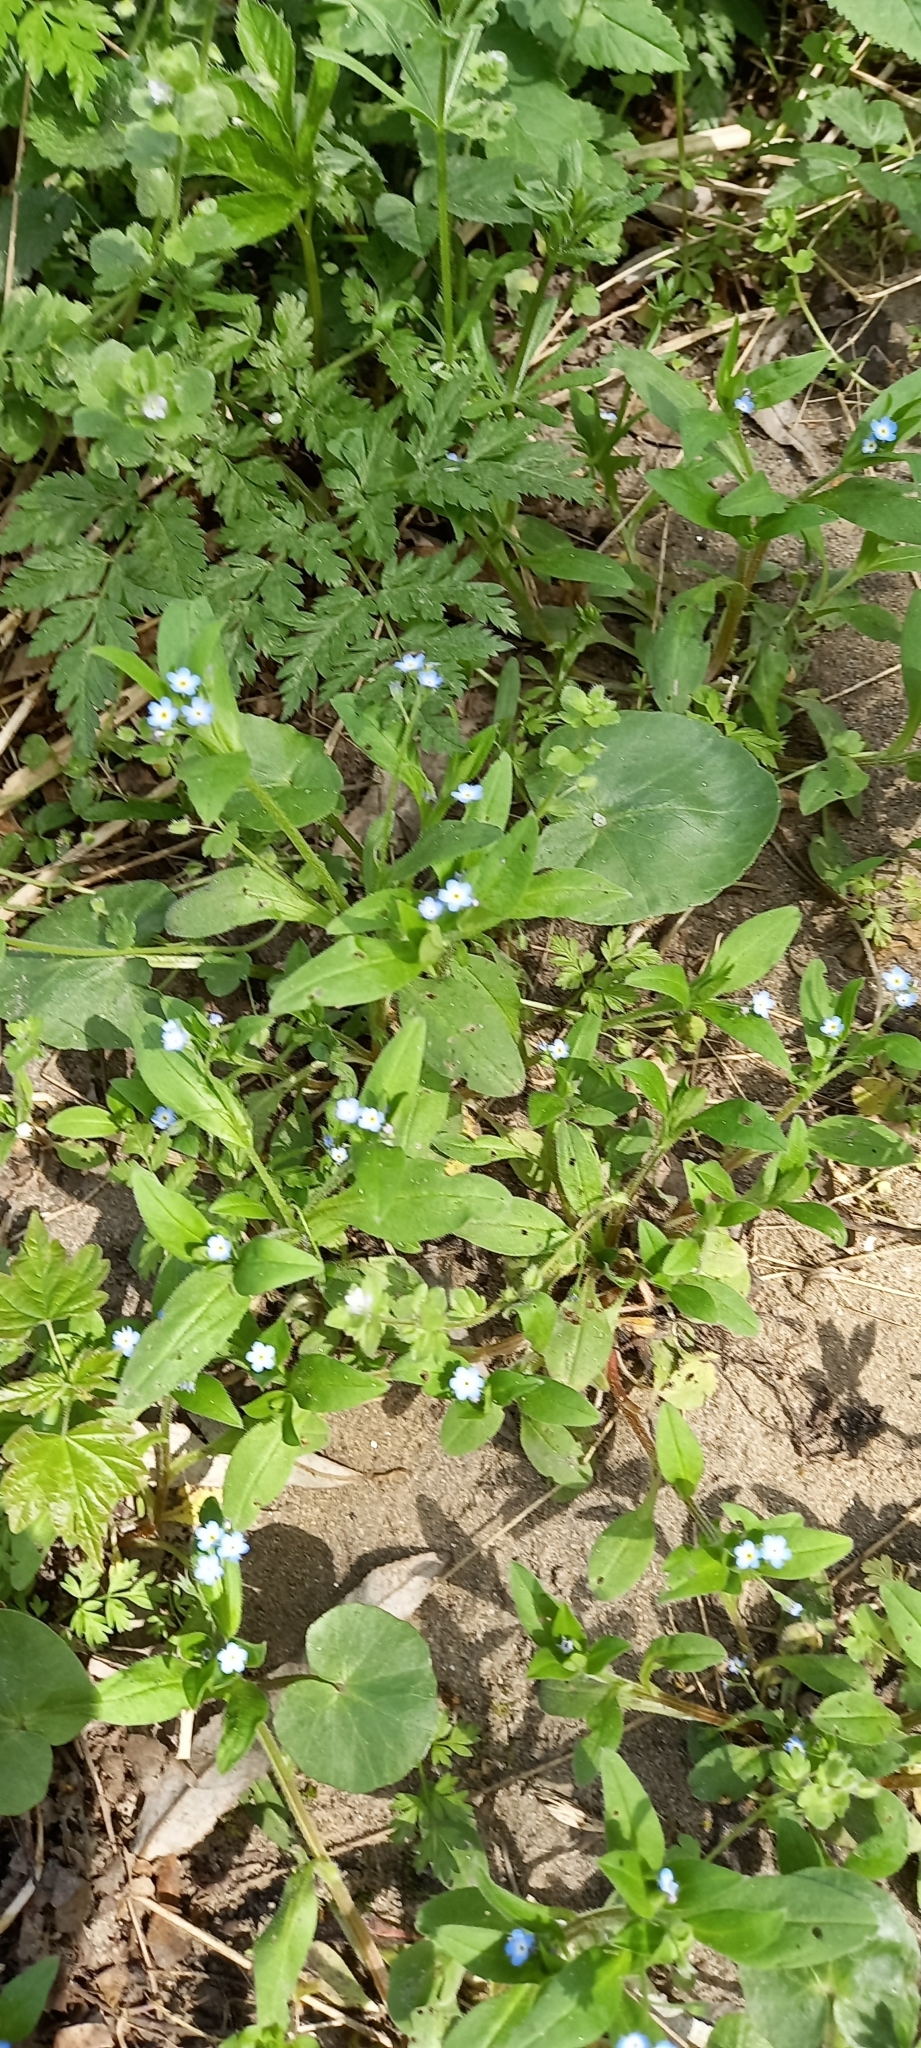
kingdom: Plantae
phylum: Tracheophyta
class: Magnoliopsida
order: Boraginales
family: Boraginaceae
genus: Myosotis
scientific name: Myosotis sparsiflora
